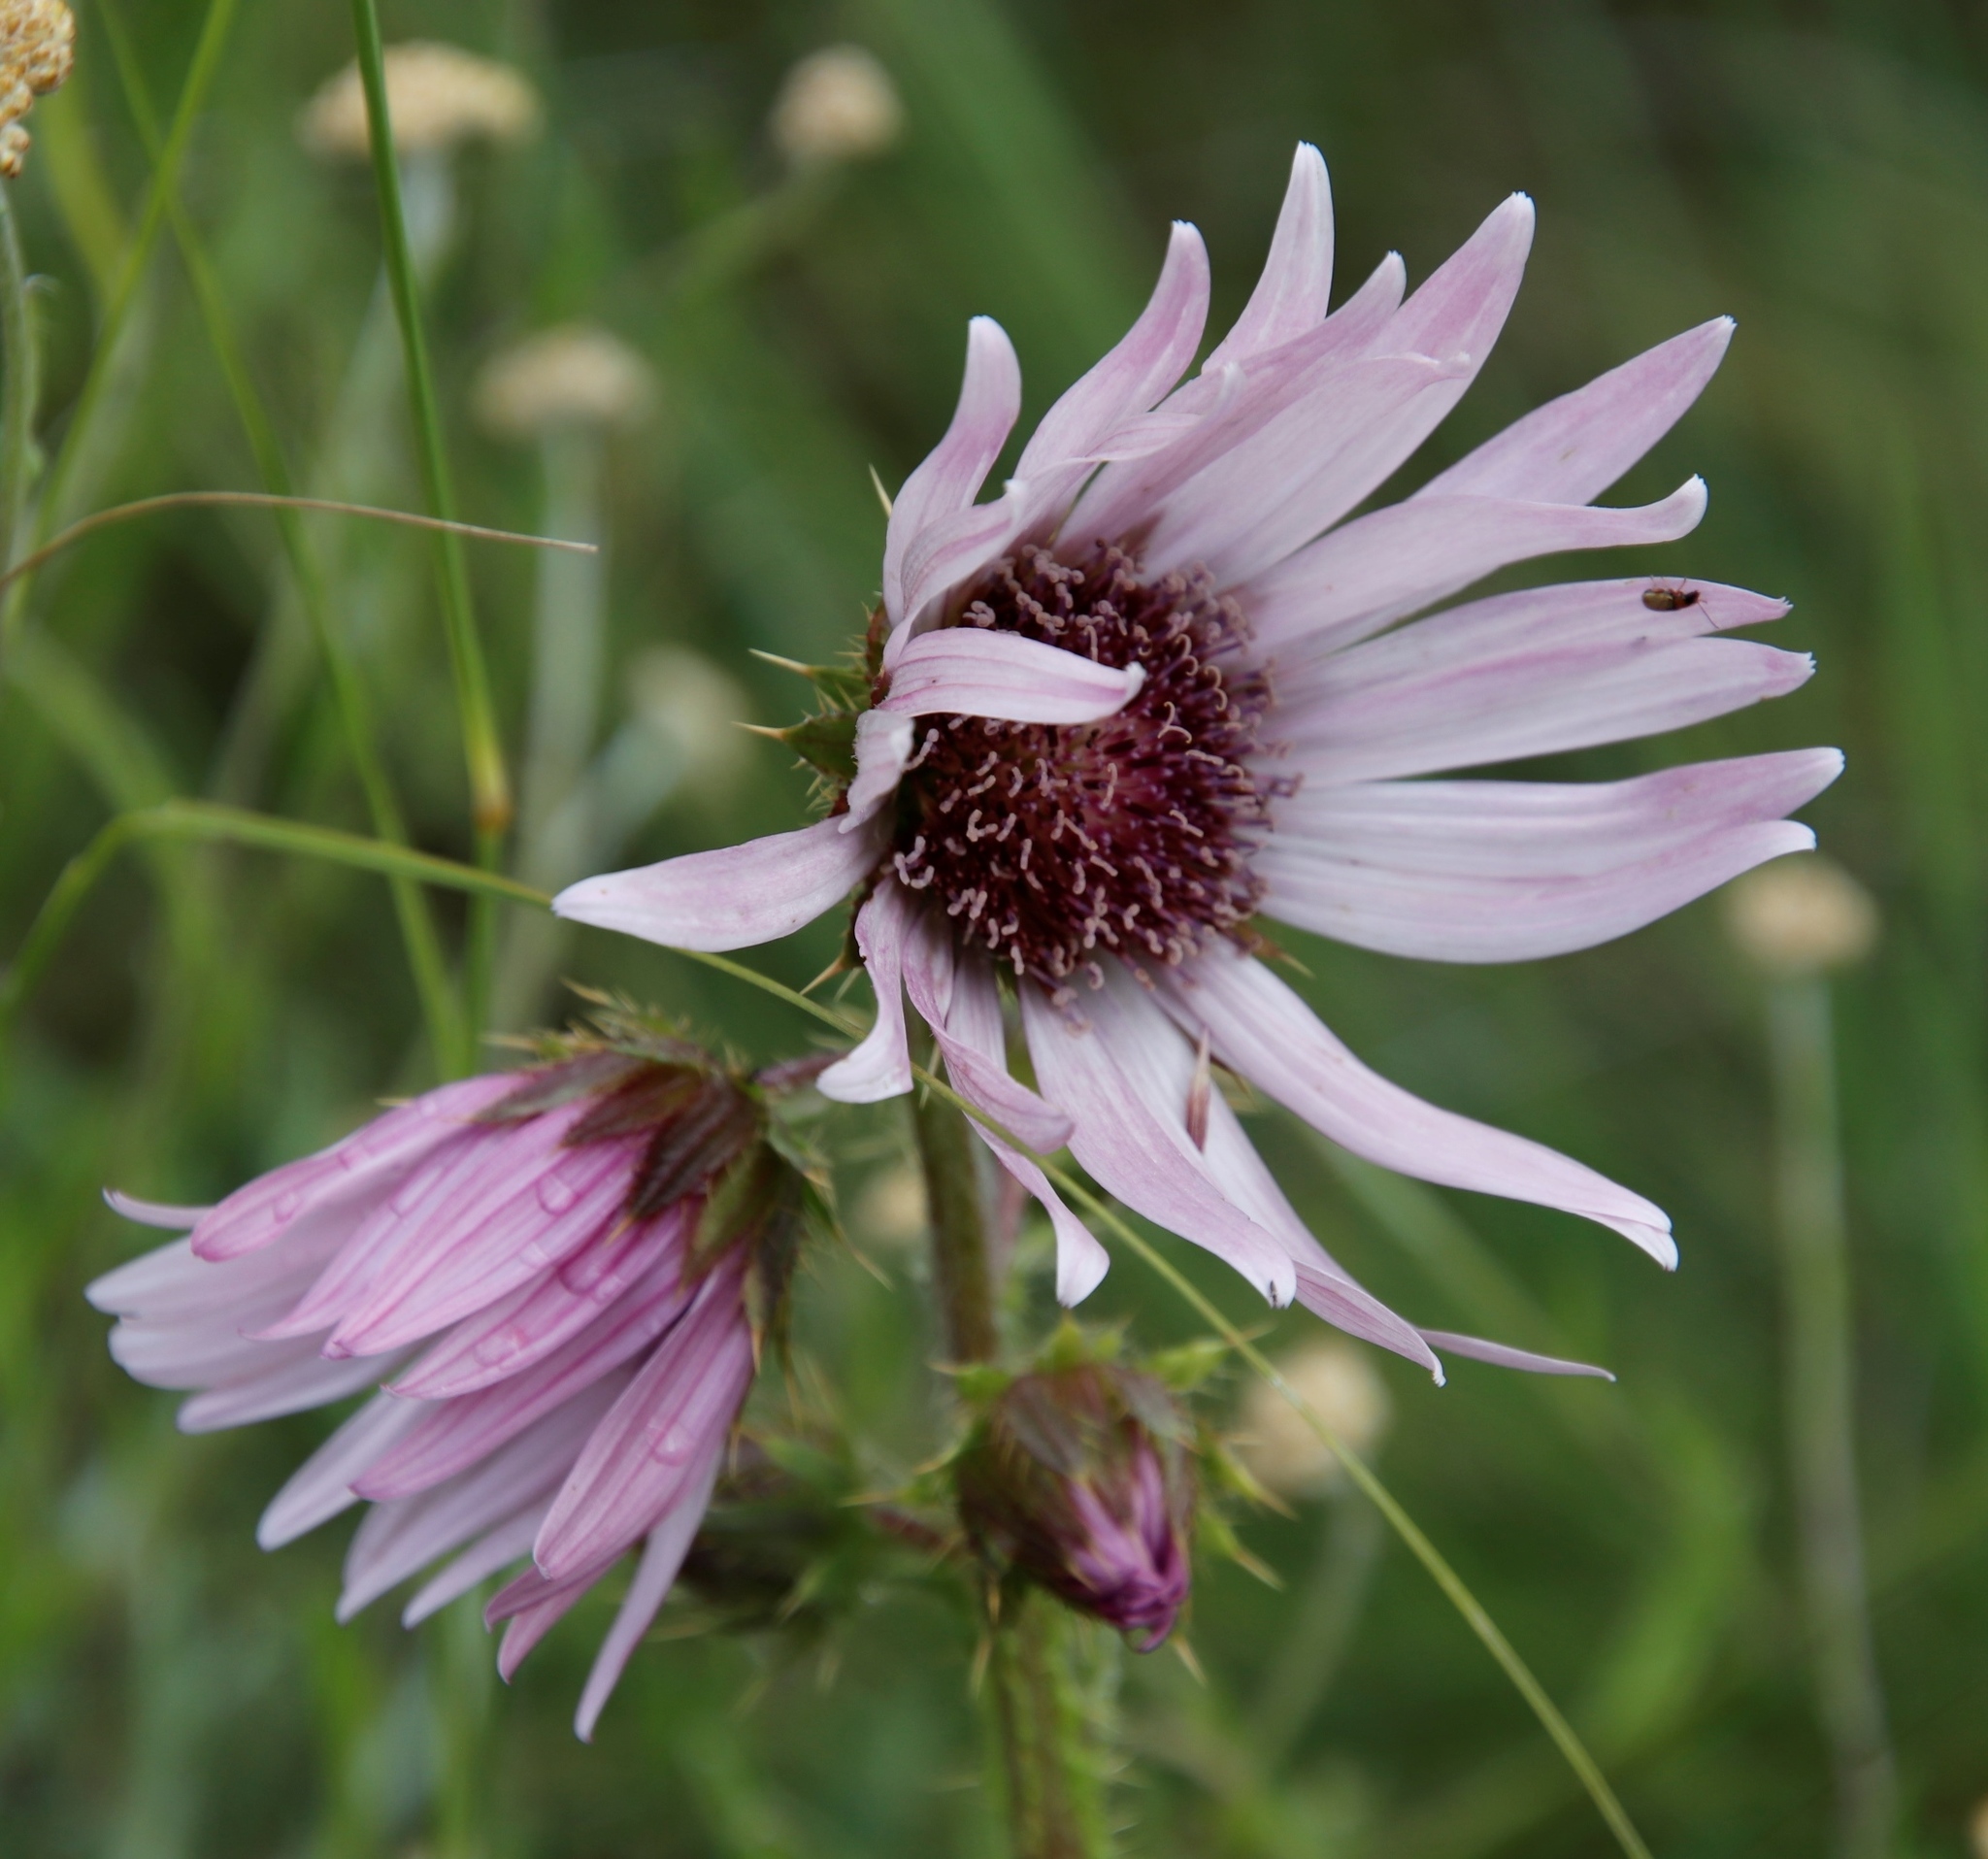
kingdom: Plantae
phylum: Tracheophyta
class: Magnoliopsida
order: Asterales
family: Asteraceae
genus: Berkheya
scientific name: Berkheya purpurea
